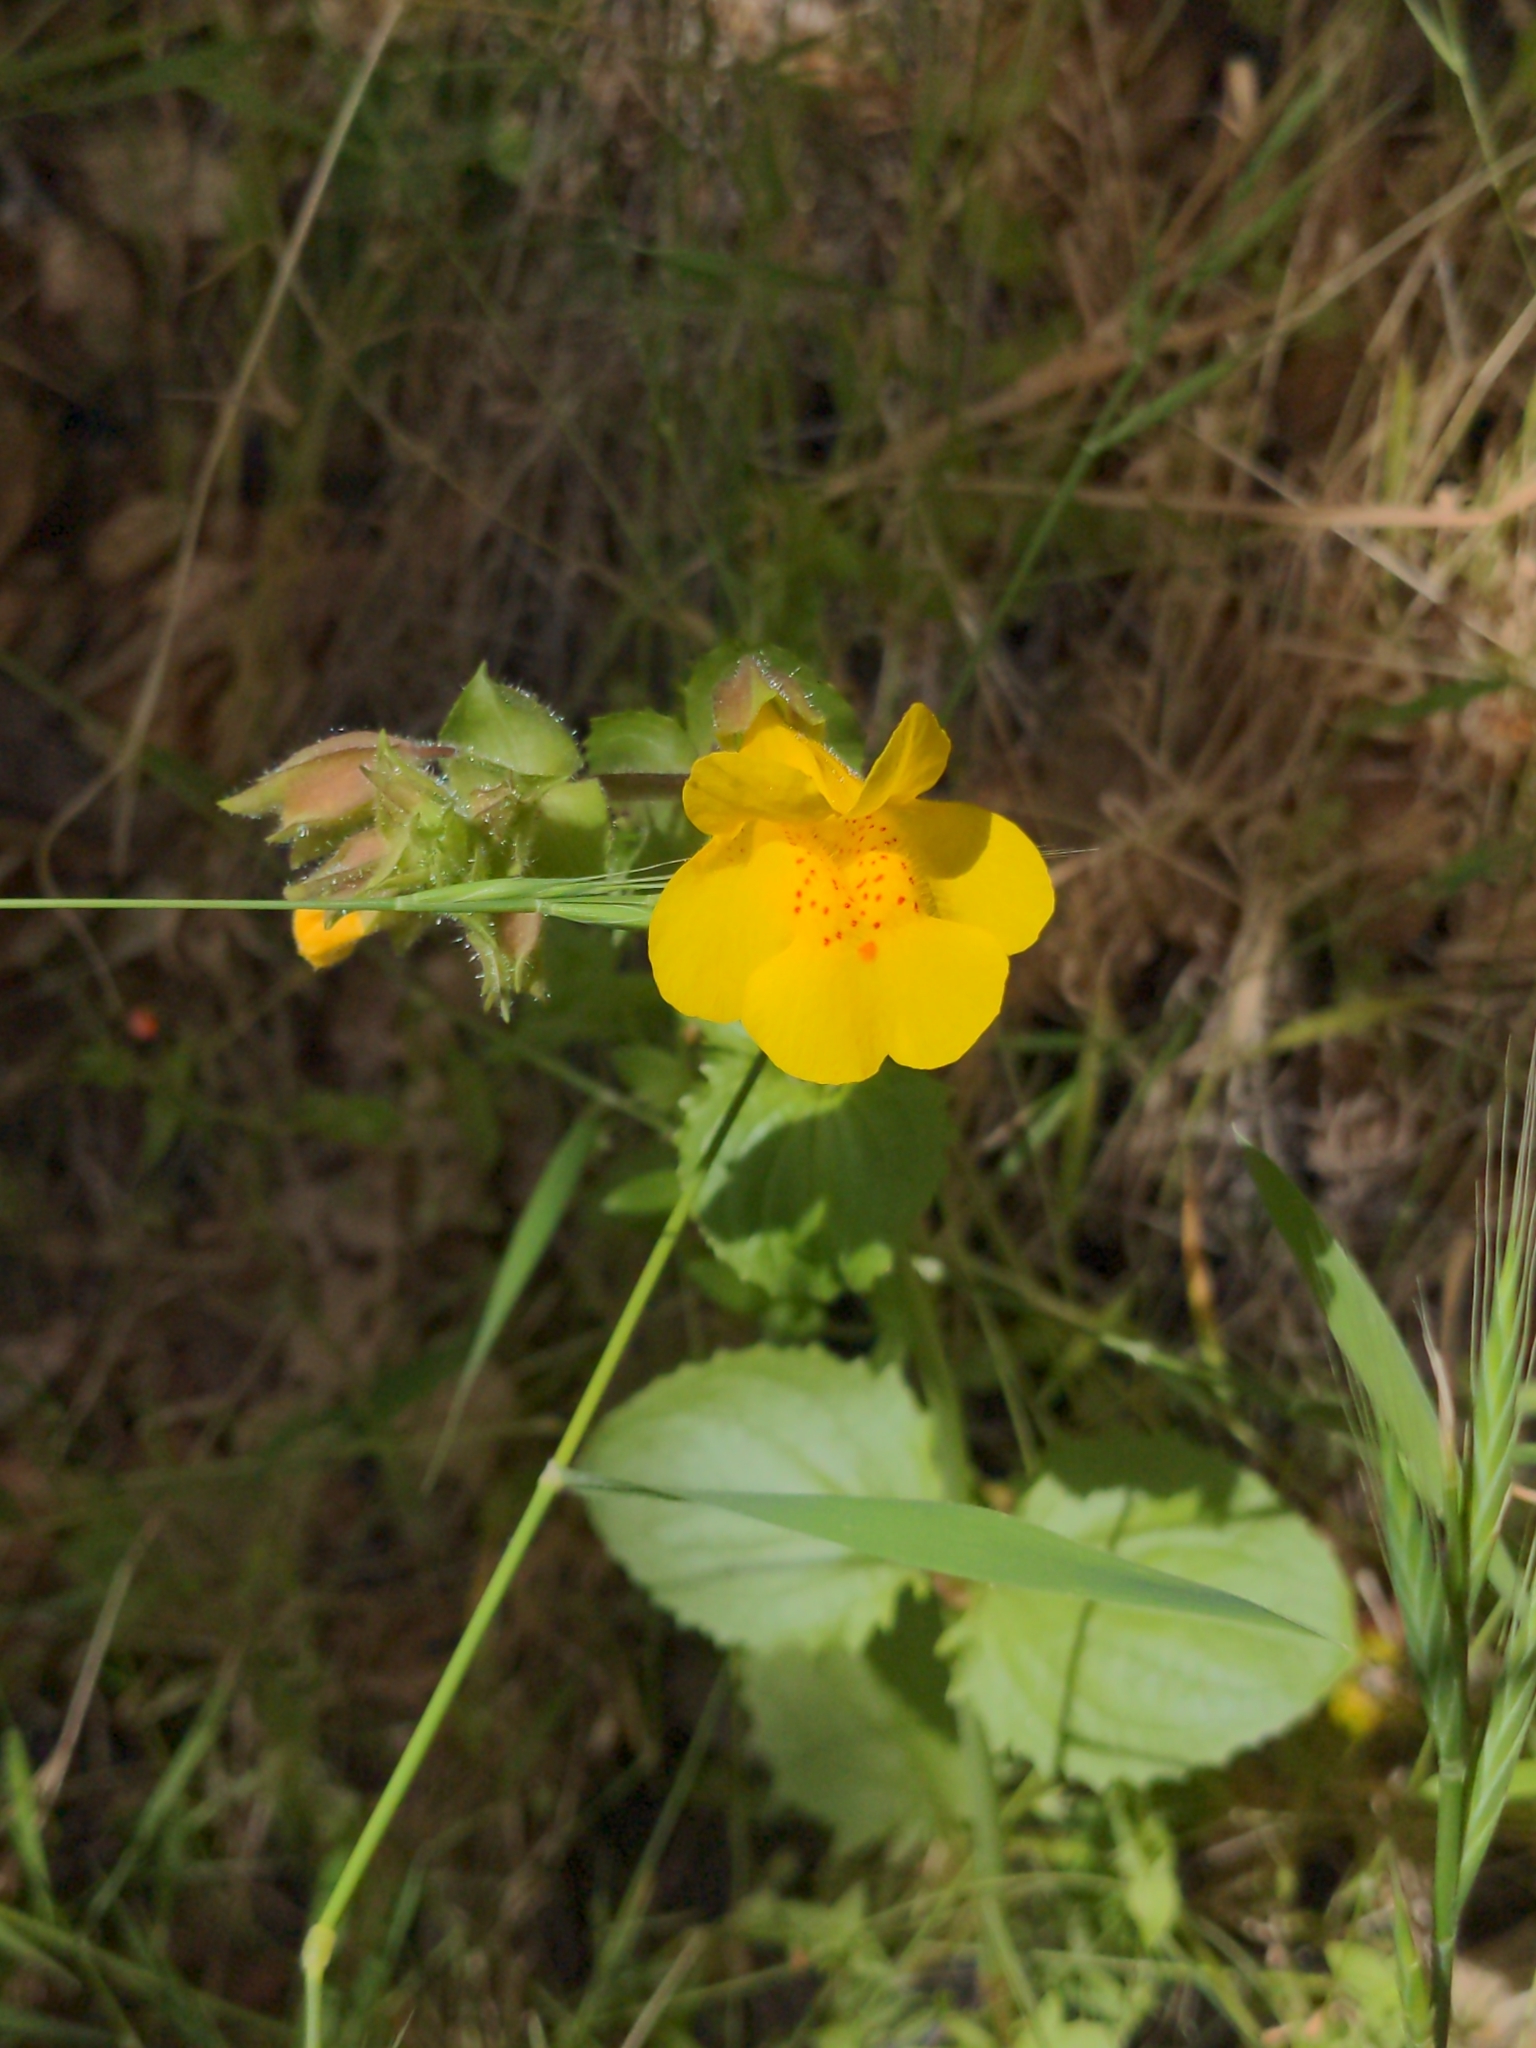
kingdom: Plantae
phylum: Tracheophyta
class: Magnoliopsida
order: Lamiales
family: Phrymaceae
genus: Erythranthe
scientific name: Erythranthe guttata
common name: Monkeyflower
